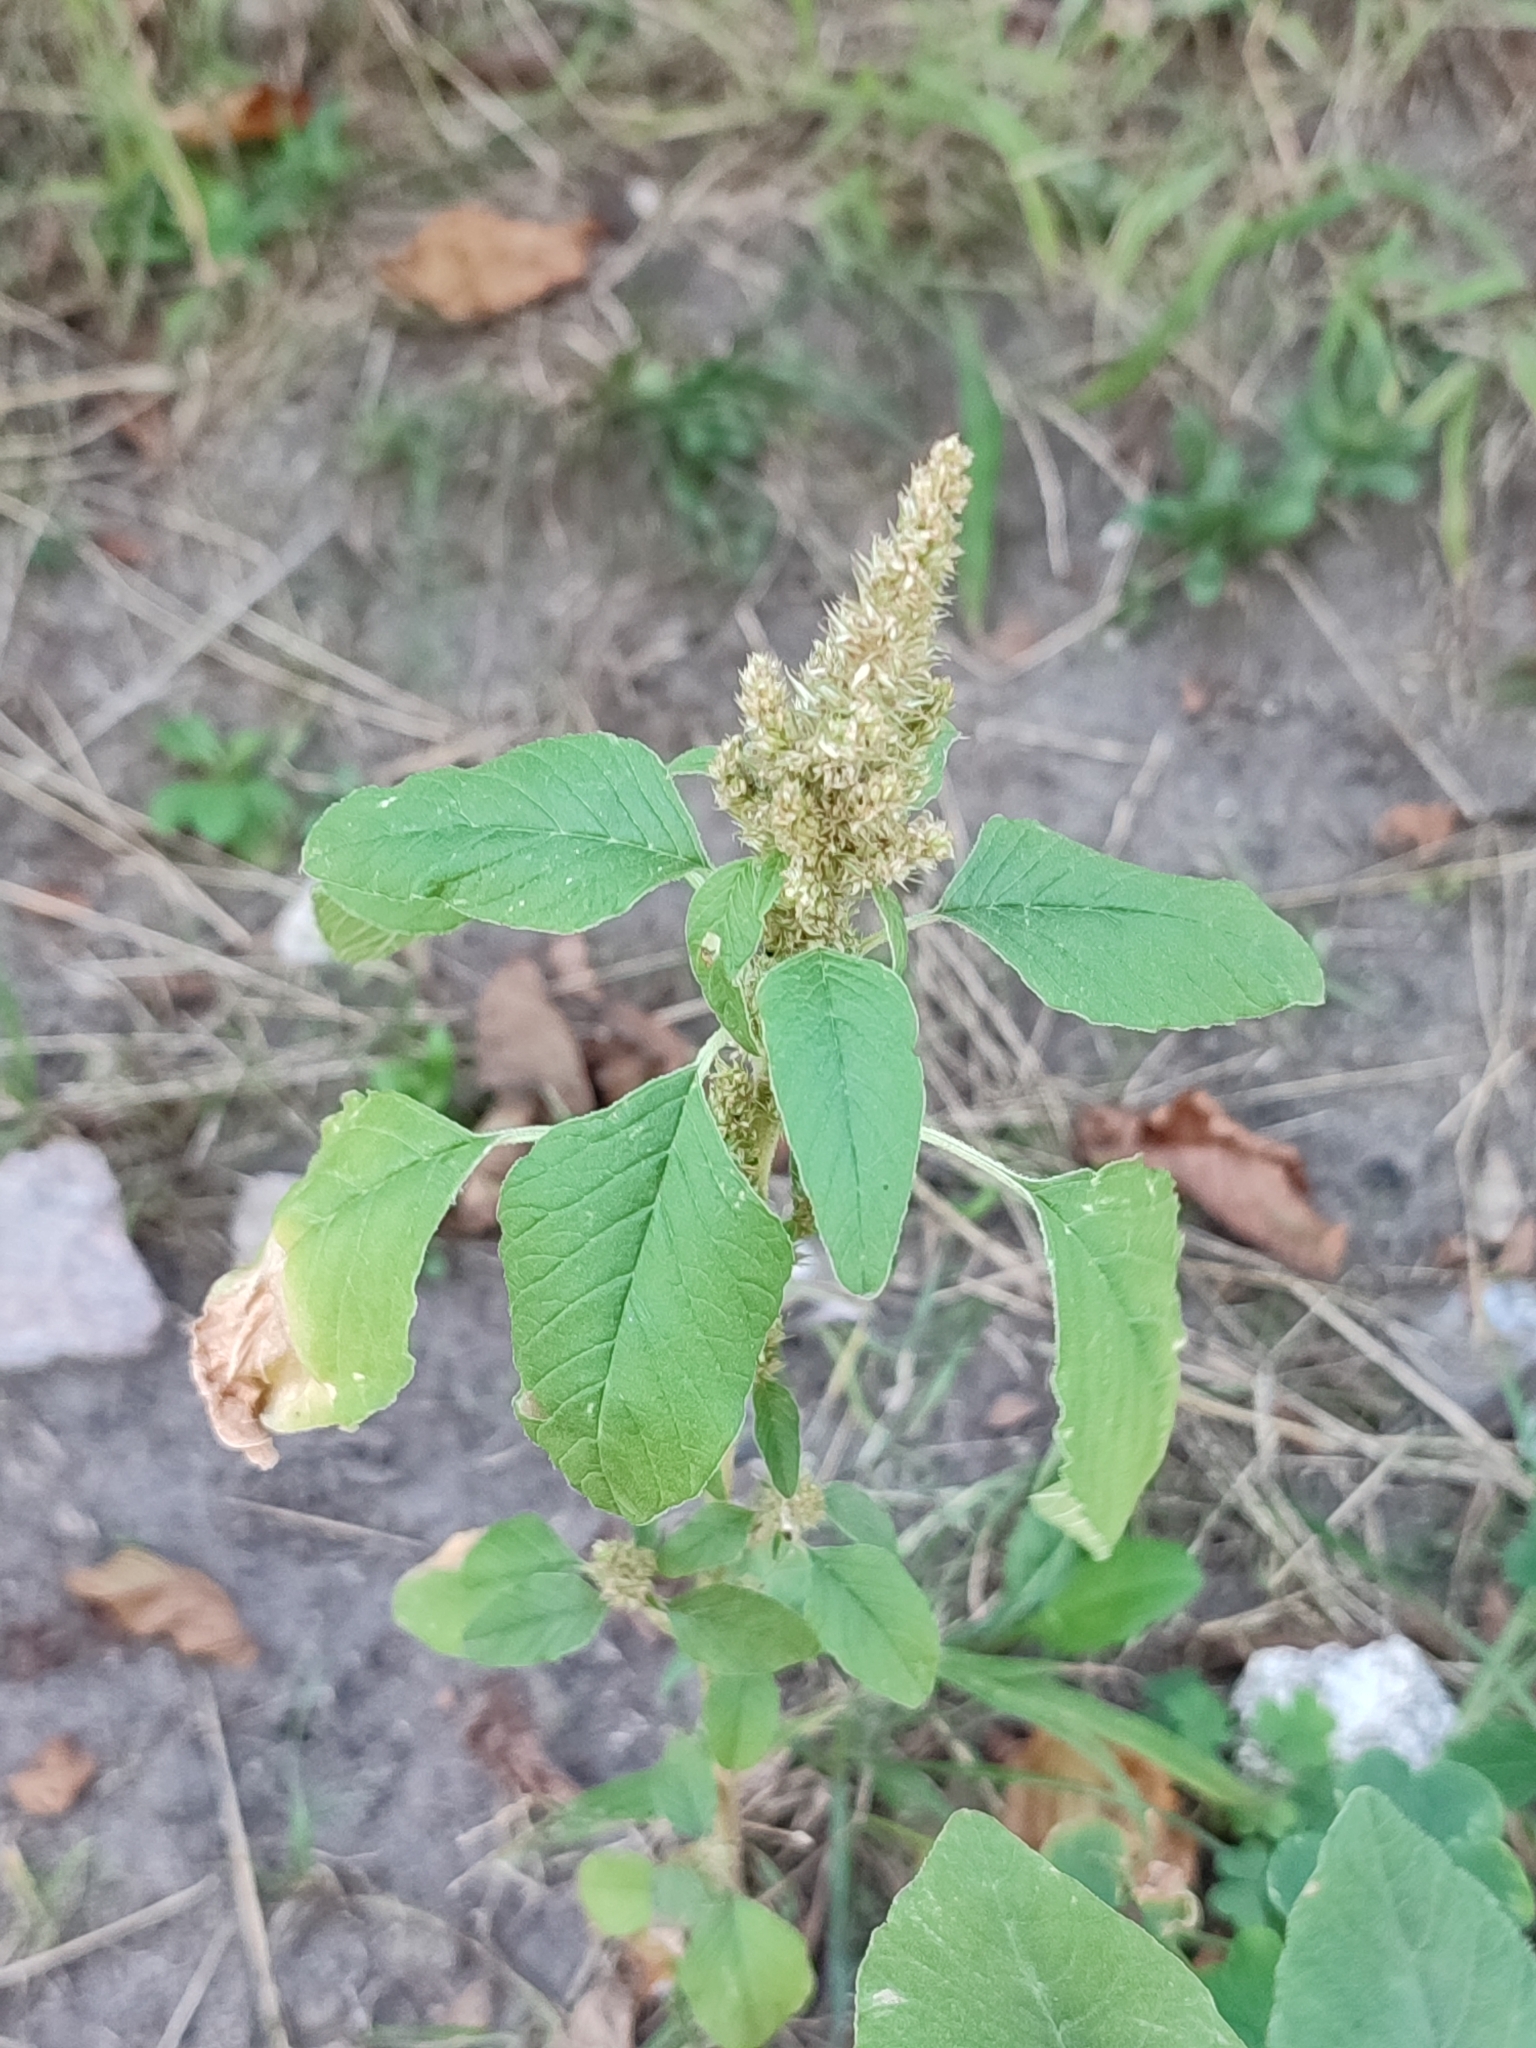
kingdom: Plantae
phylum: Tracheophyta
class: Magnoliopsida
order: Caryophyllales
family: Amaranthaceae
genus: Amaranthus
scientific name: Amaranthus retroflexus
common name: Redroot amaranth
